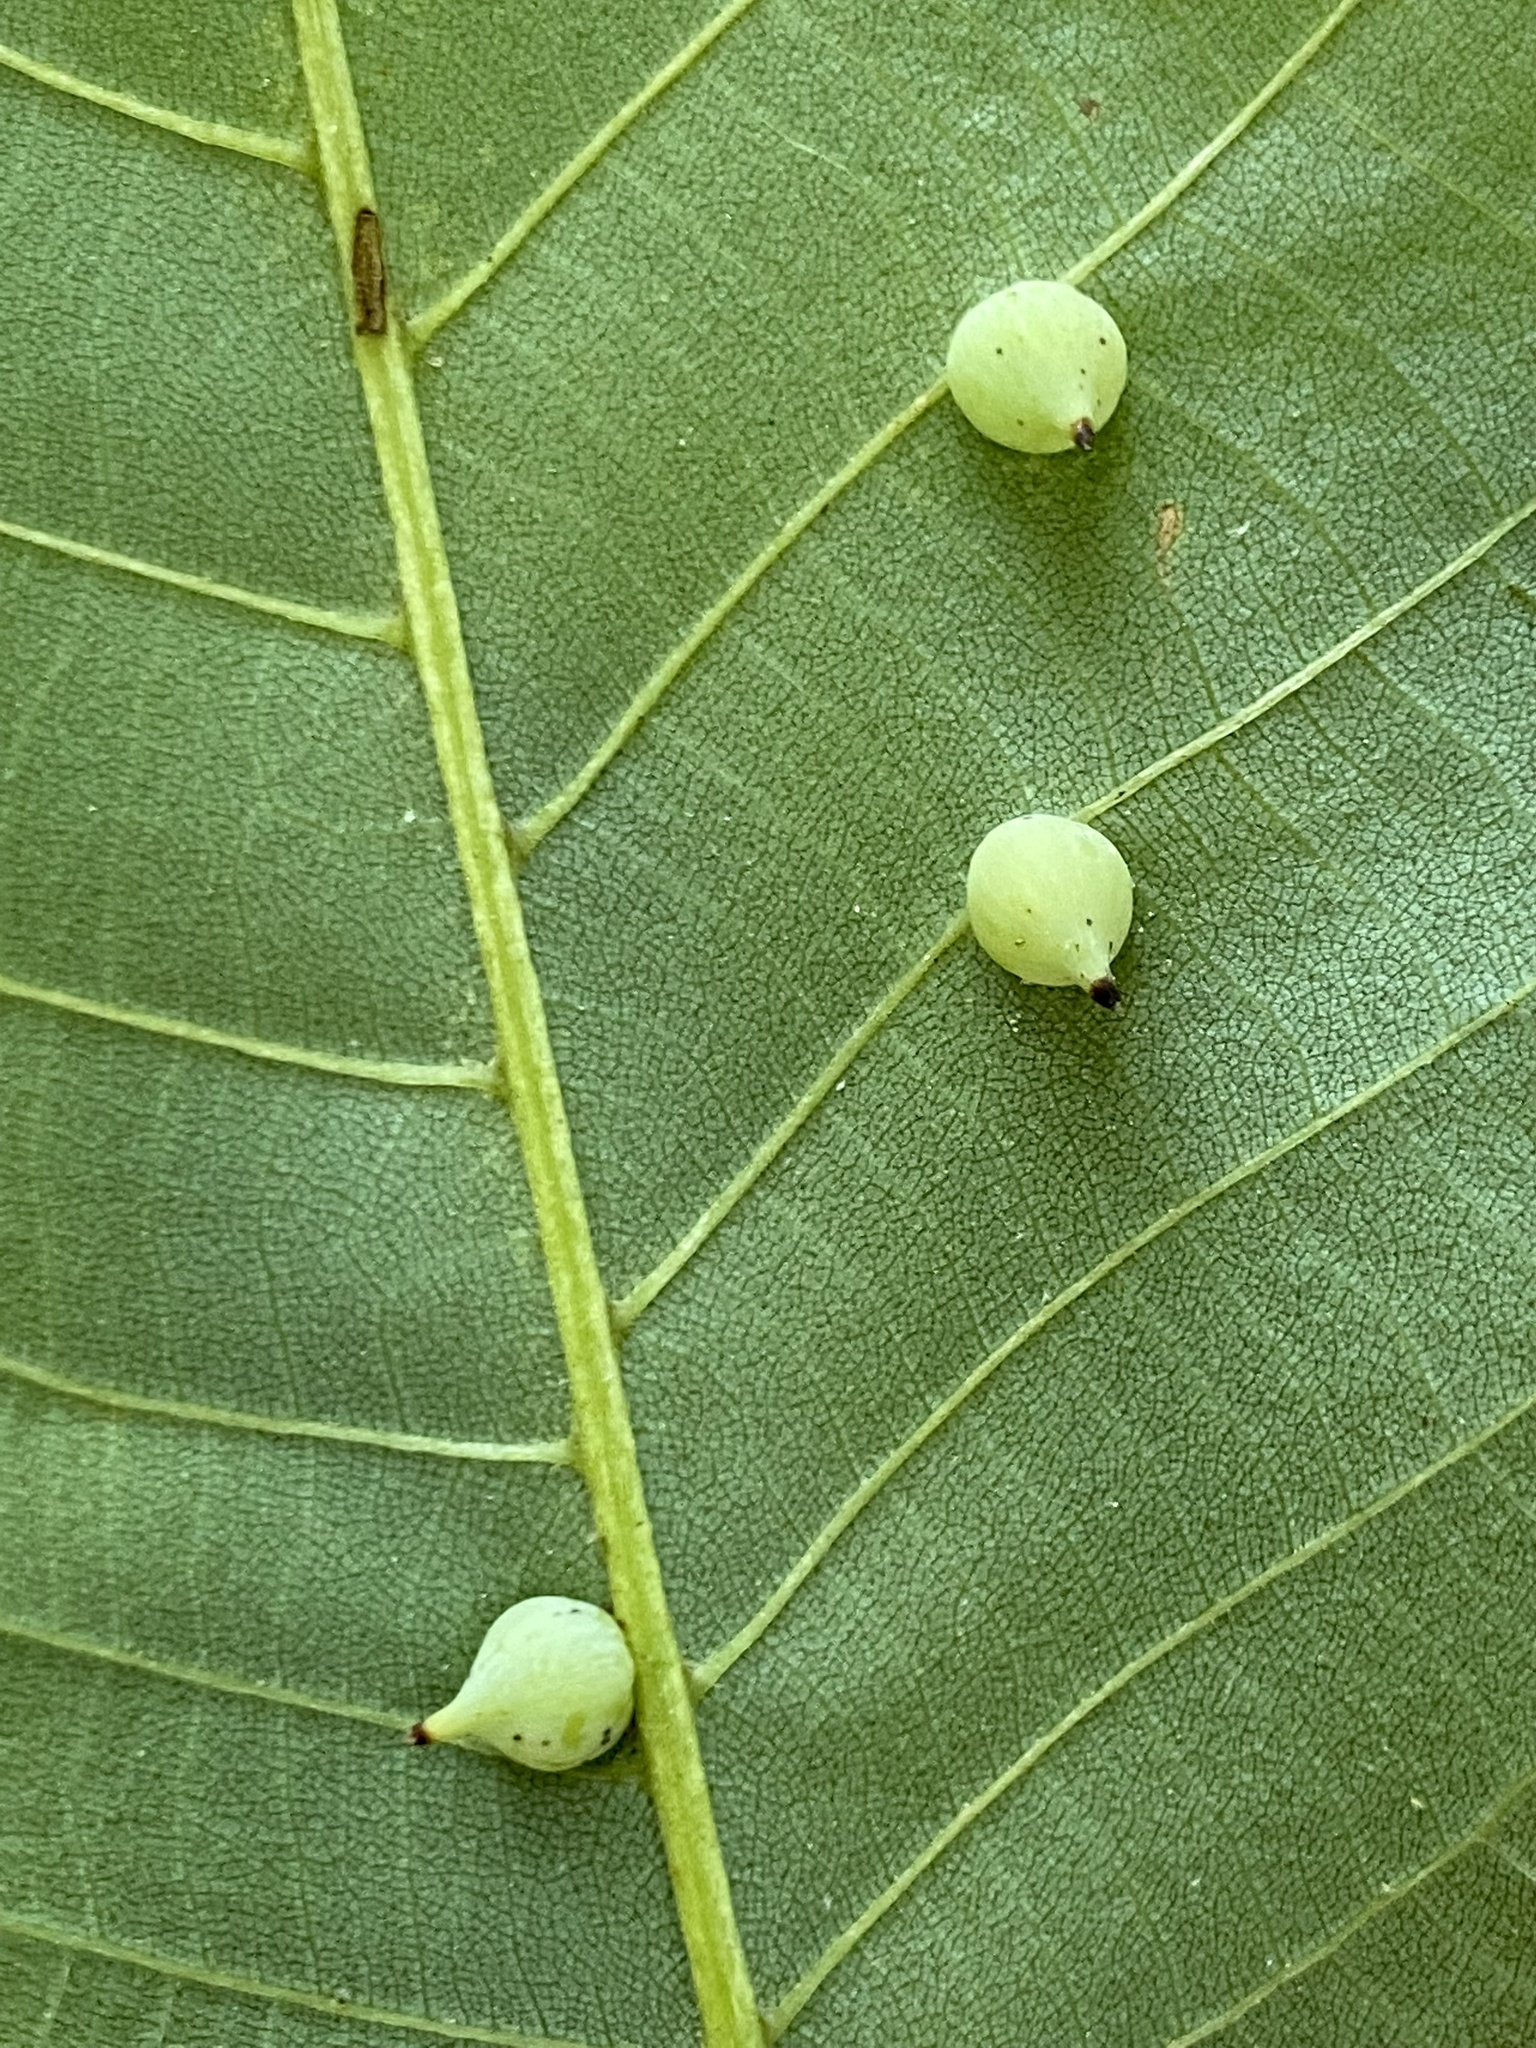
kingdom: Animalia
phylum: Arthropoda
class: Insecta
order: Diptera
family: Cecidomyiidae
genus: Caryomyia
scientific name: Caryomyia caryaecola
